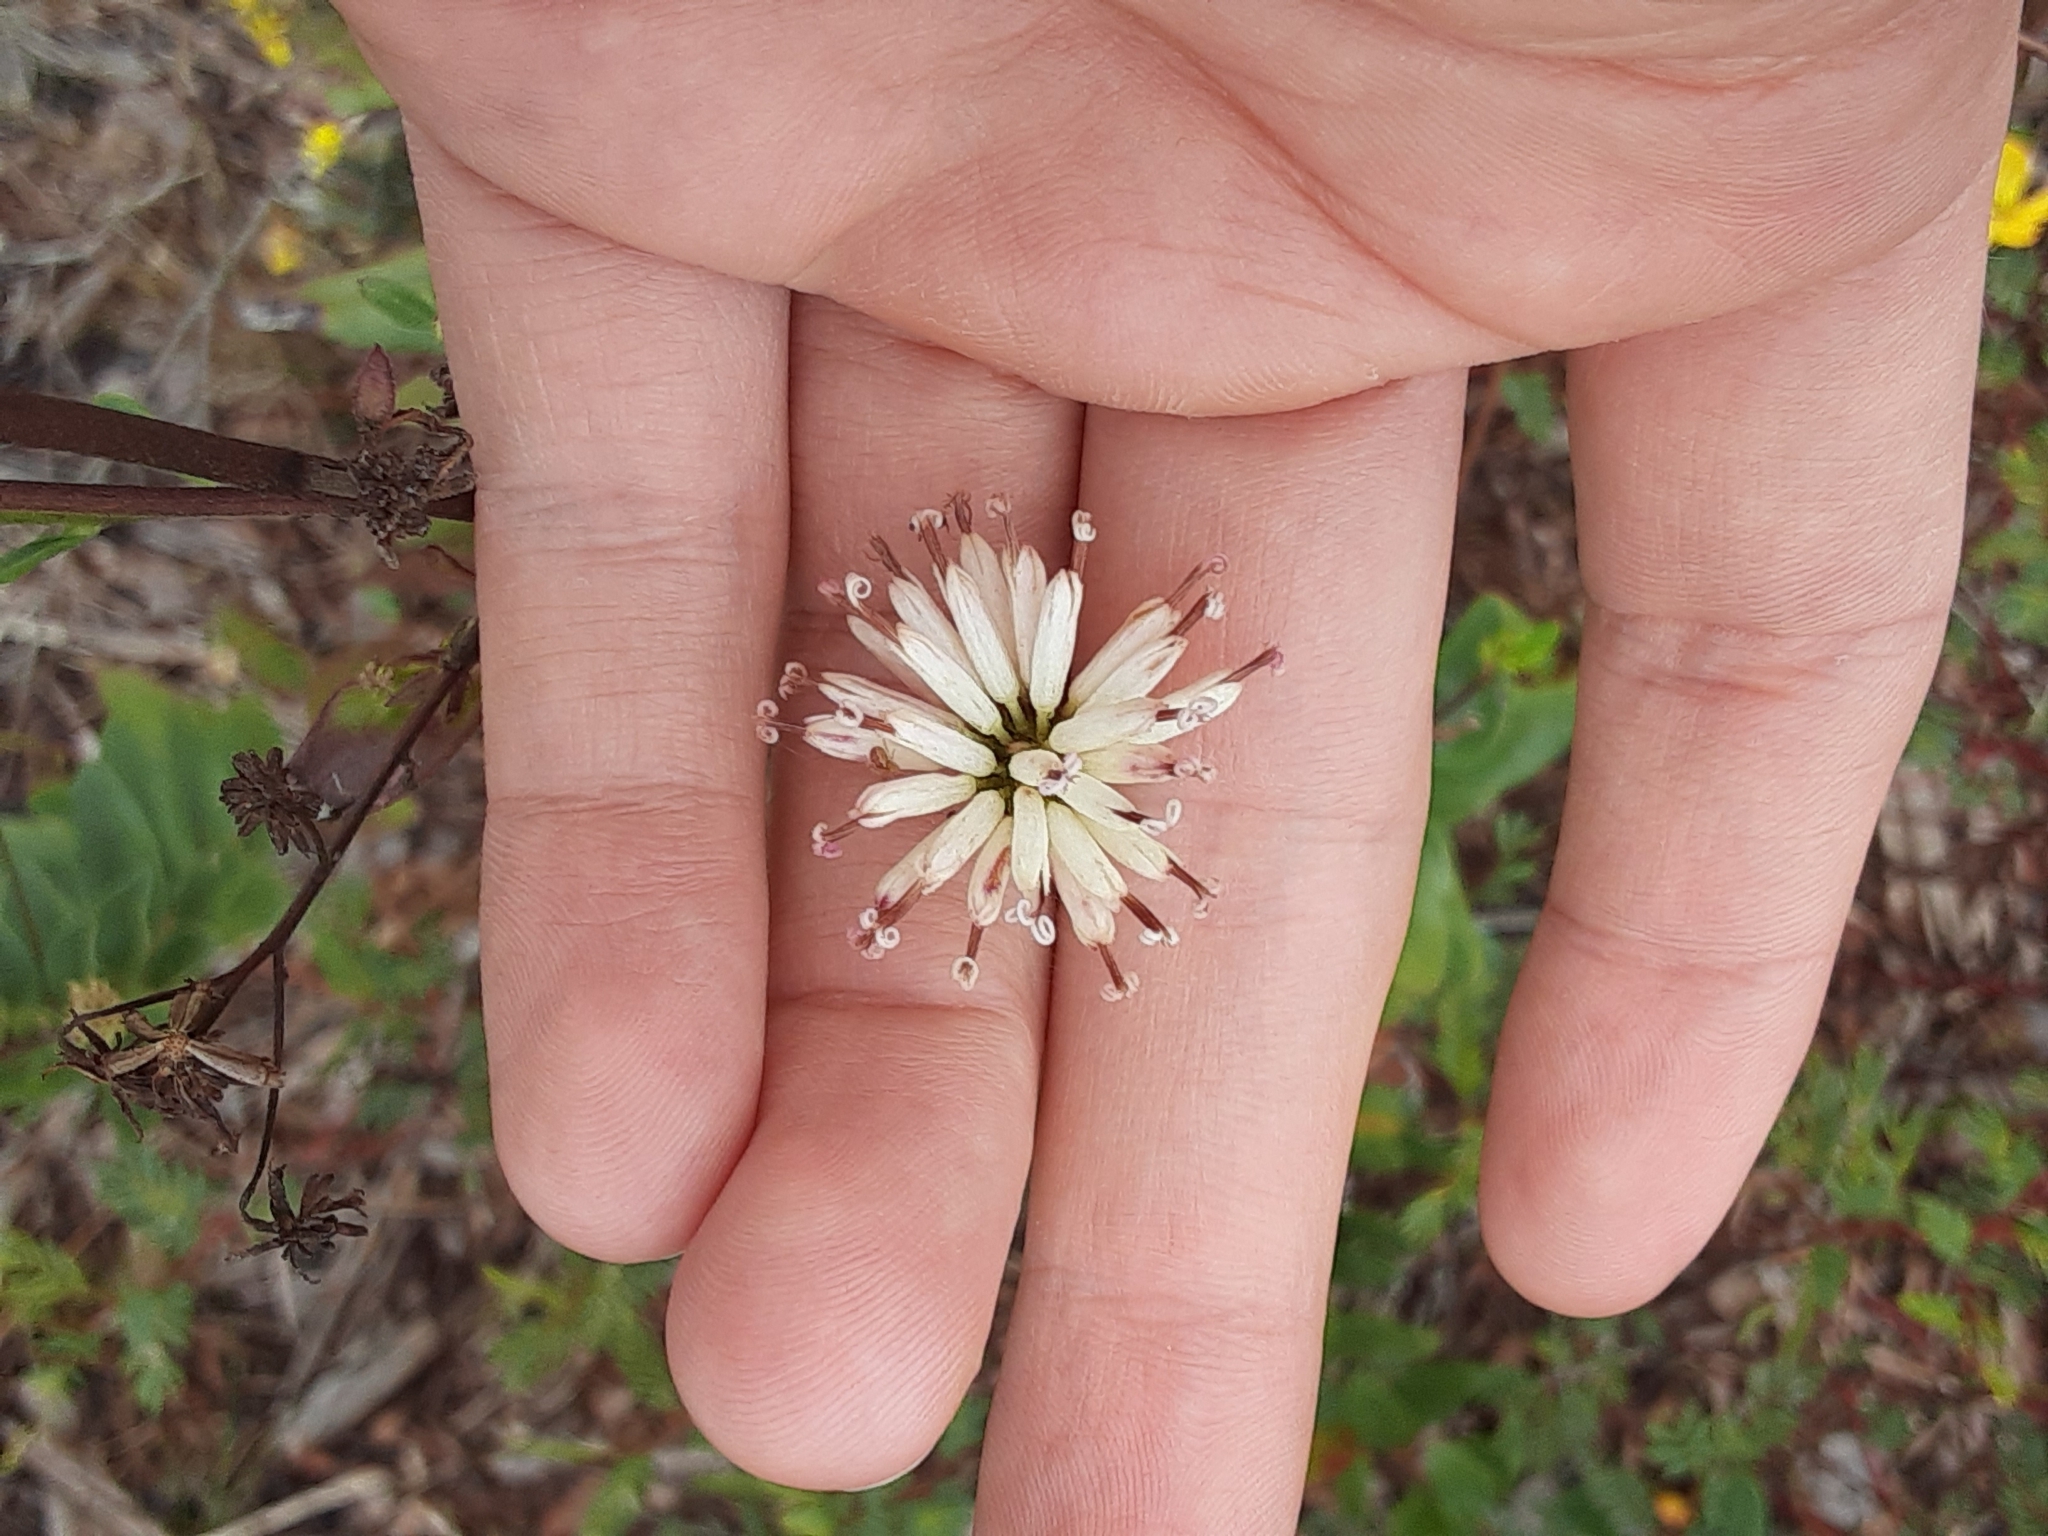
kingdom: Plantae
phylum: Tracheophyta
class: Magnoliopsida
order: Asterales
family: Asteraceae
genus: Palafoxia
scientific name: Palafoxia feayi
